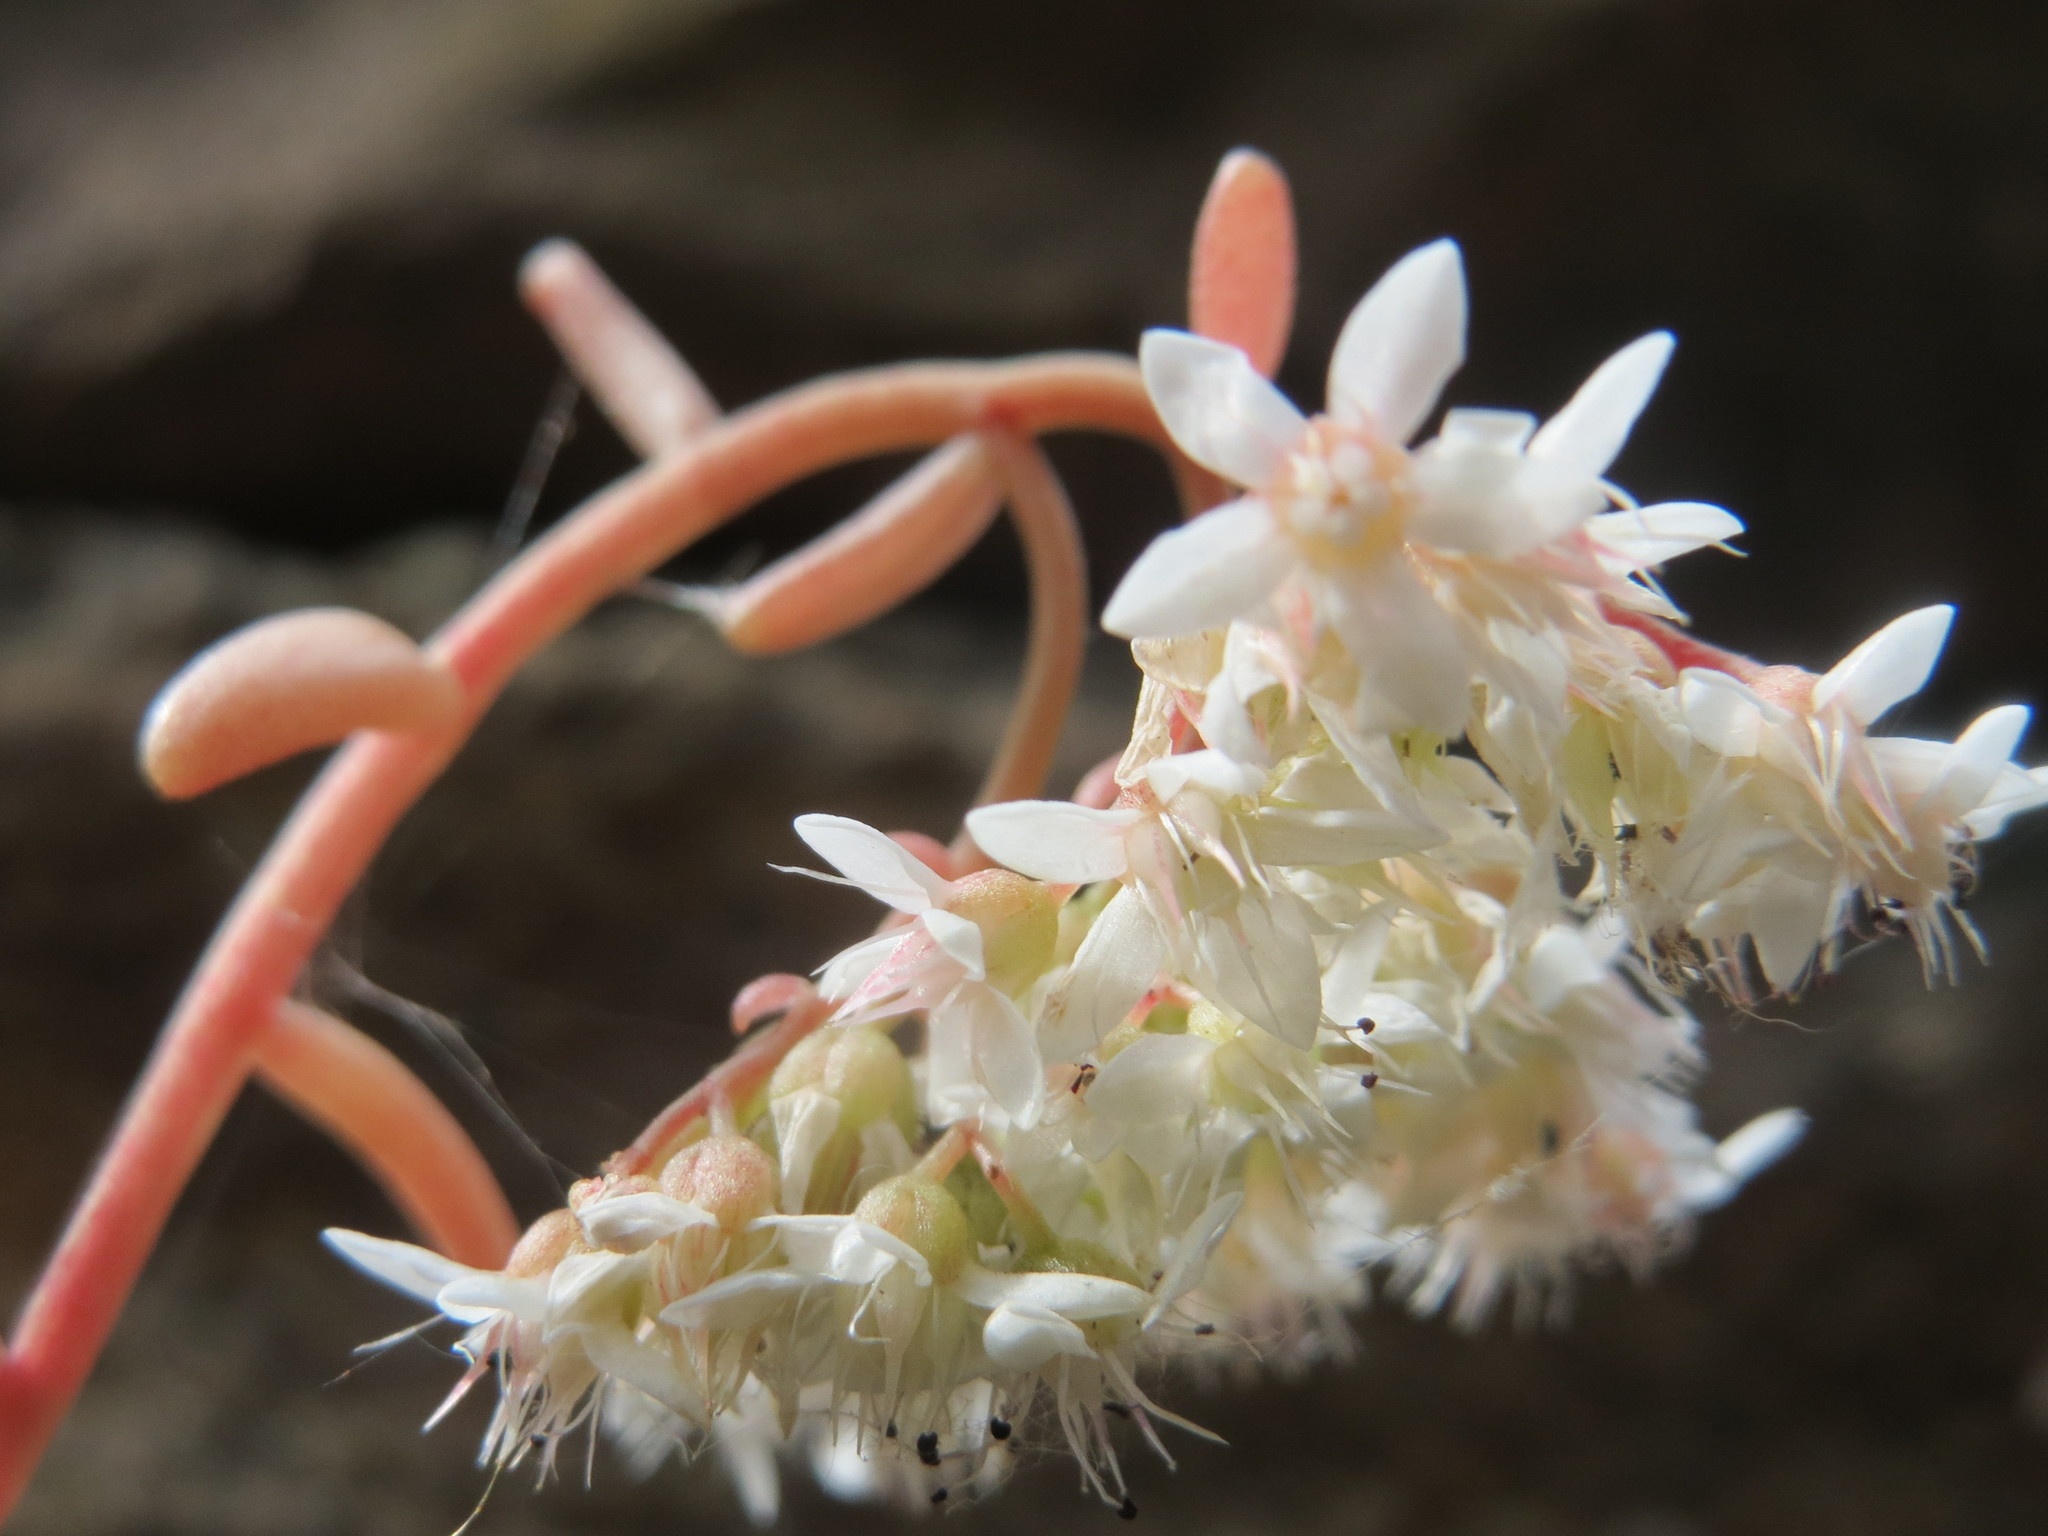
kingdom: Plantae
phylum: Tracheophyta
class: Magnoliopsida
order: Saxifragales
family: Crassulaceae
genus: Sedum
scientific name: Sedum album
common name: White stonecrop
